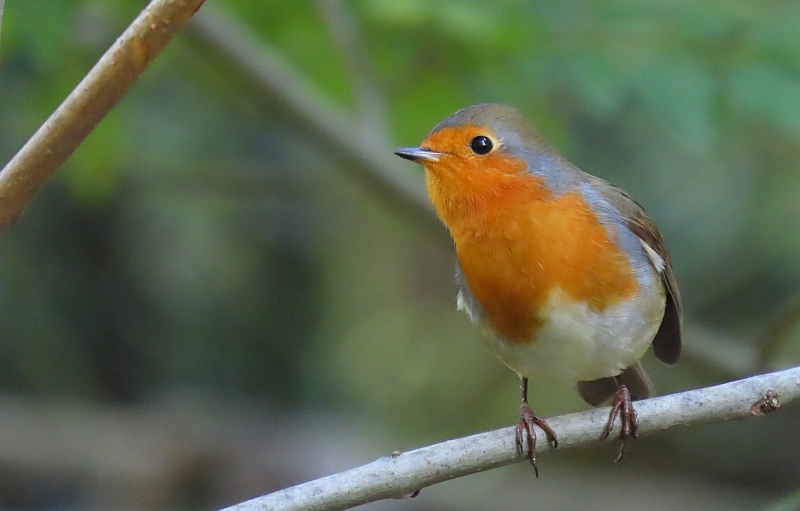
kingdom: Animalia
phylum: Chordata
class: Aves
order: Passeriformes
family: Muscicapidae
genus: Erithacus
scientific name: Erithacus rubecula
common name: European robin
